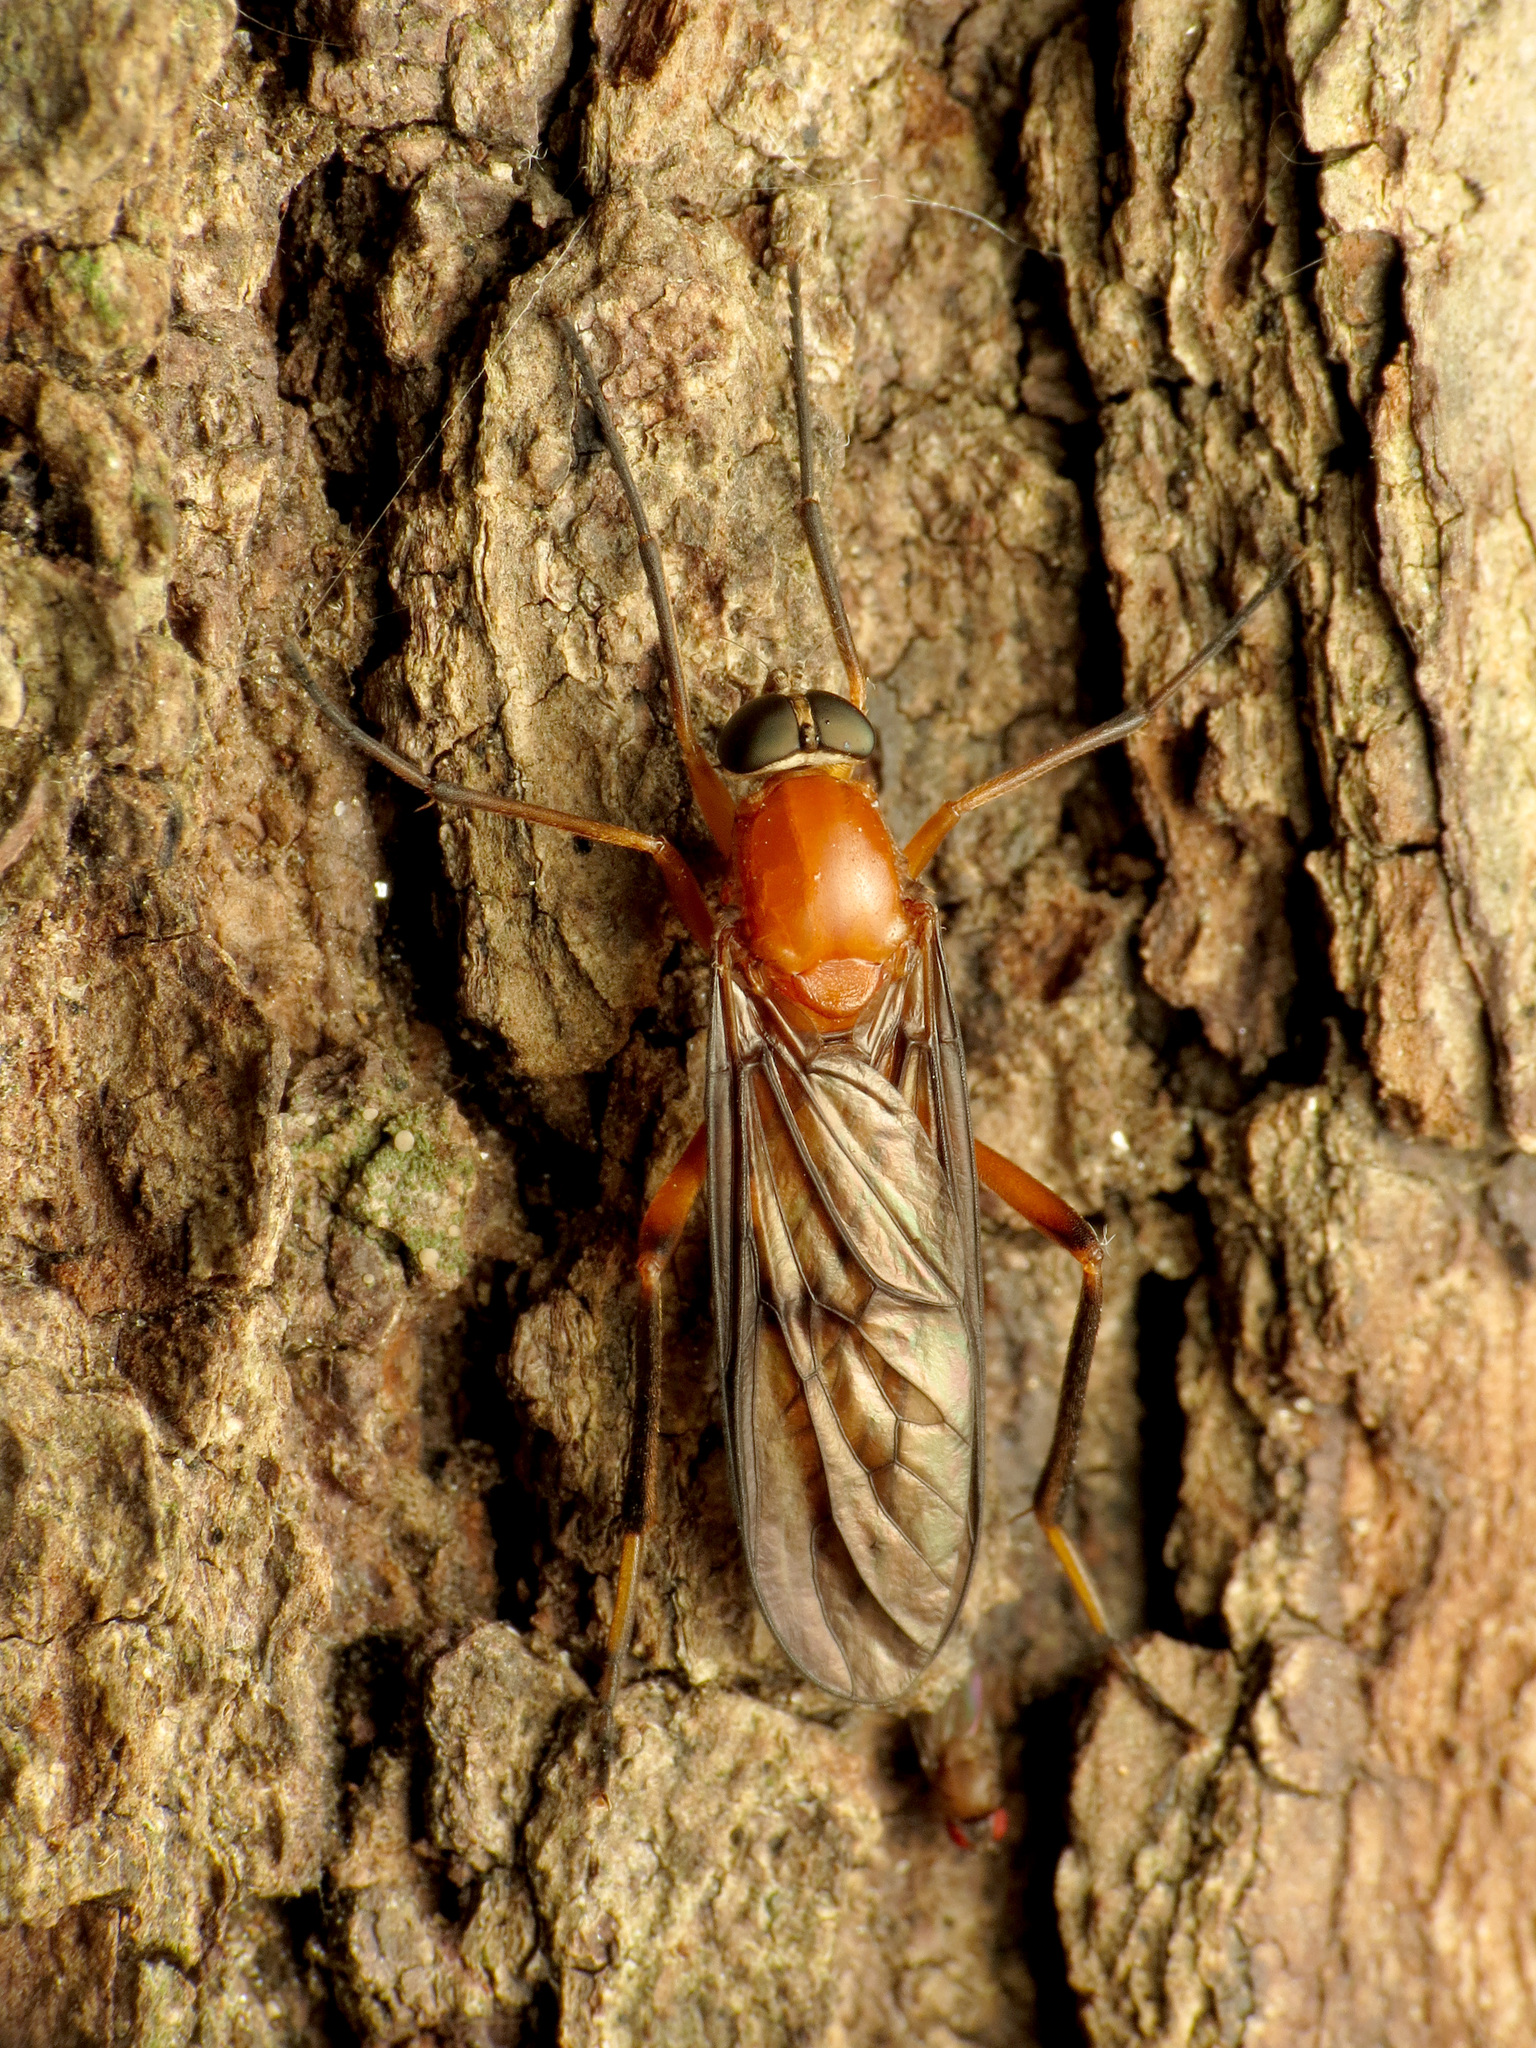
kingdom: Animalia
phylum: Arthropoda
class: Insecta
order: Diptera
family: Xylophagidae
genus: Dialysis
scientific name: Dialysis rufithorax
